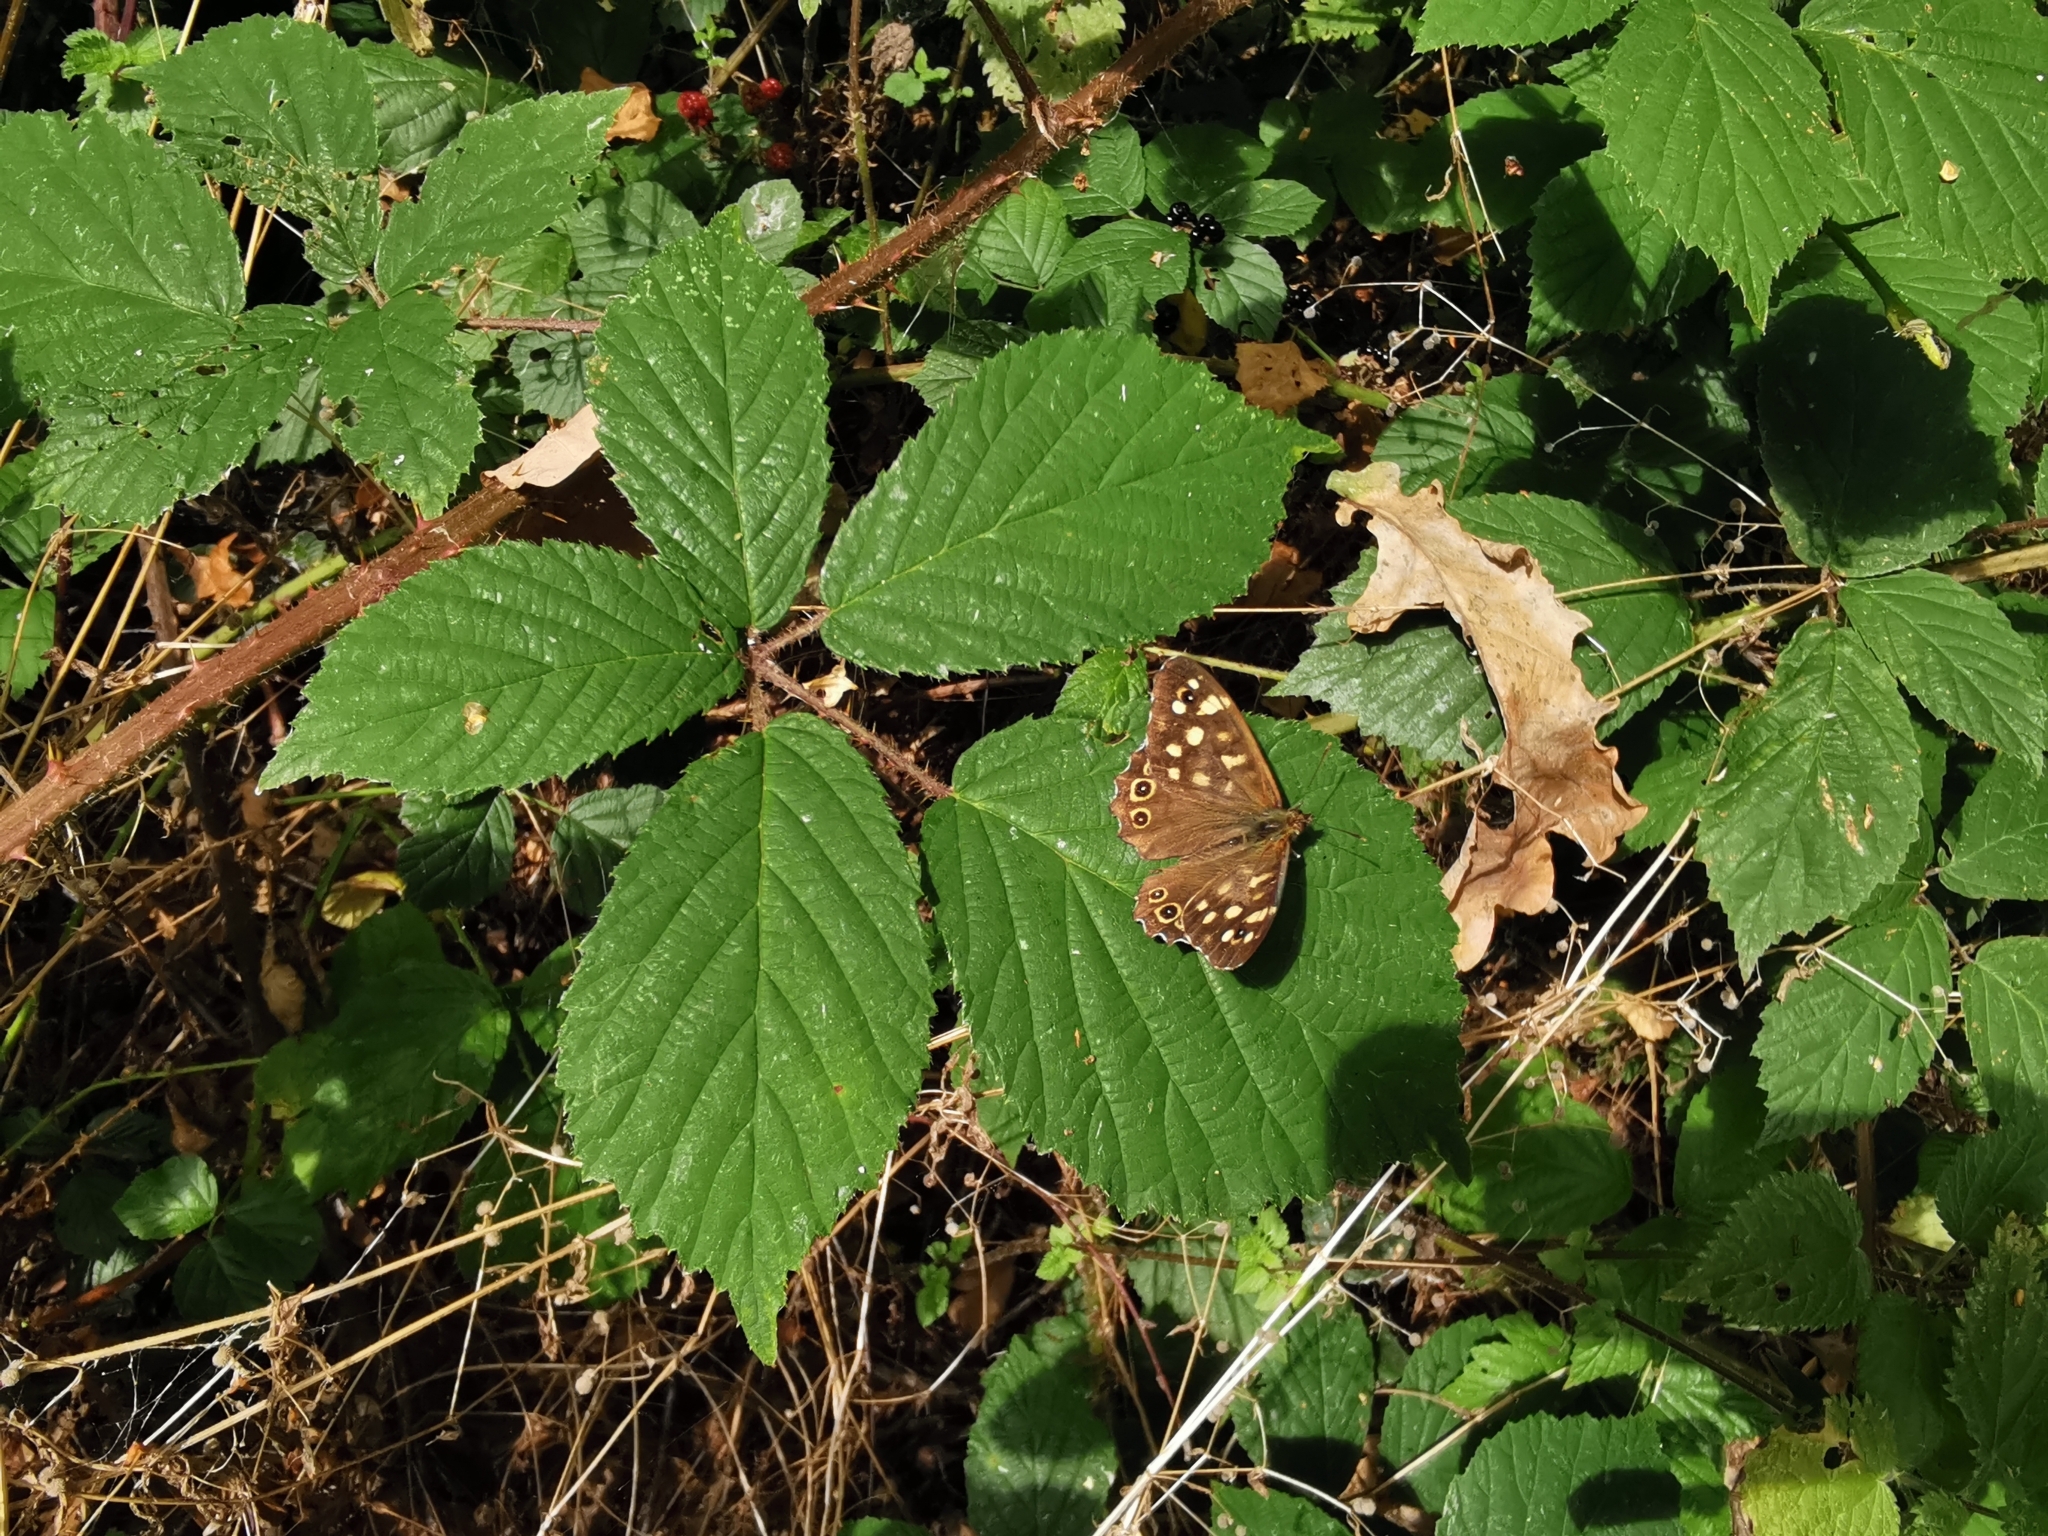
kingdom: Animalia
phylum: Arthropoda
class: Insecta
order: Lepidoptera
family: Nymphalidae
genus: Pararge
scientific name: Pararge aegeria
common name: Speckled wood
